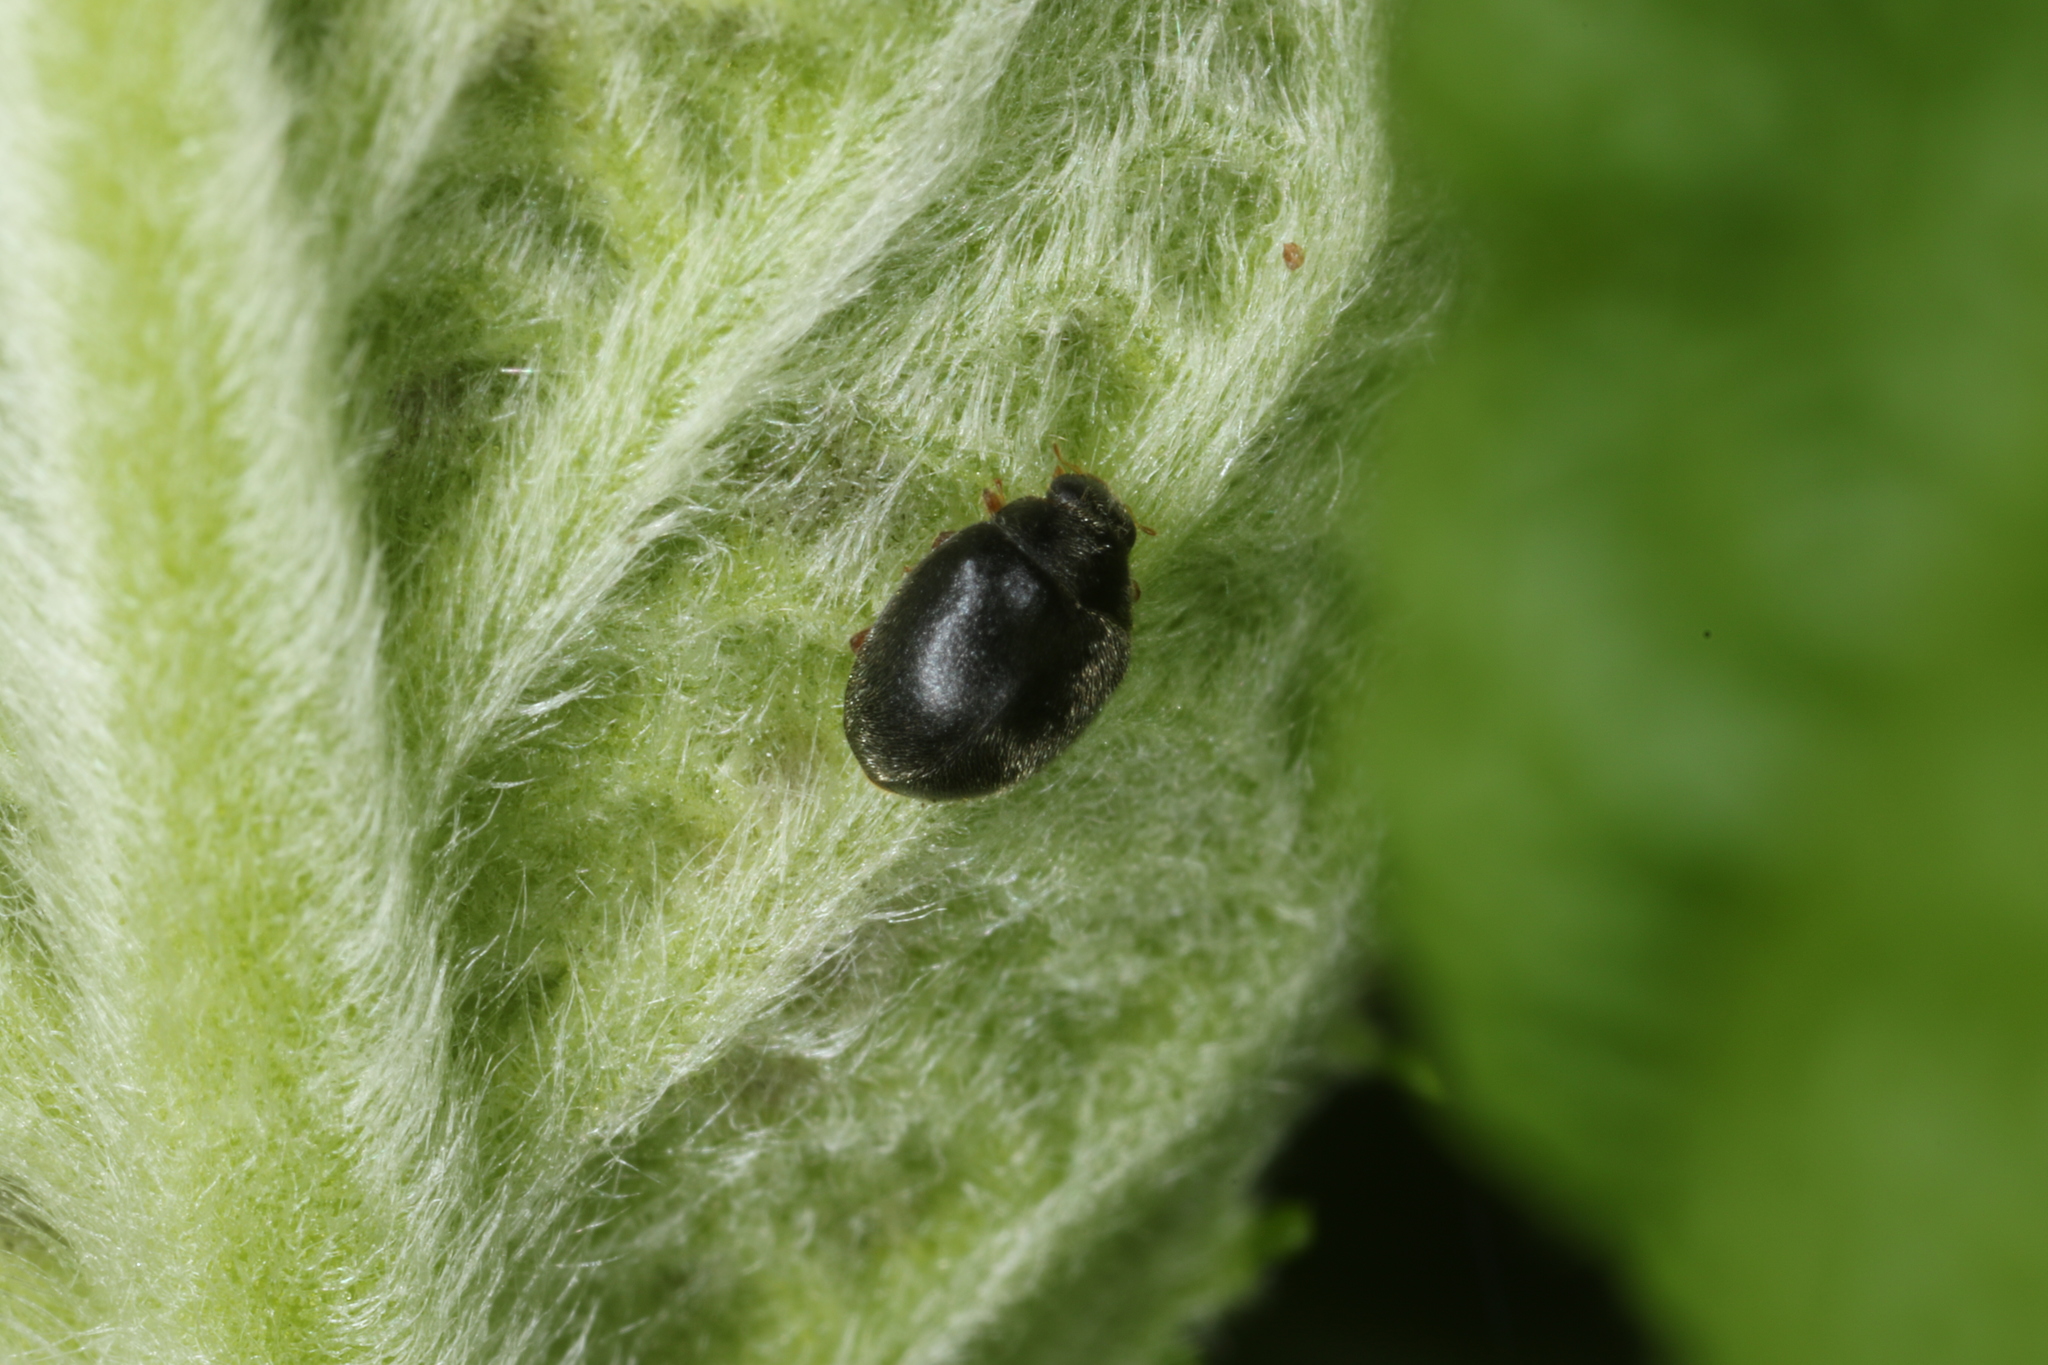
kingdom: Animalia
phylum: Arthropoda
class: Insecta
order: Coleoptera
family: Coccinellidae
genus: Scymnus
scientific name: Scymnus rubromaculatus
